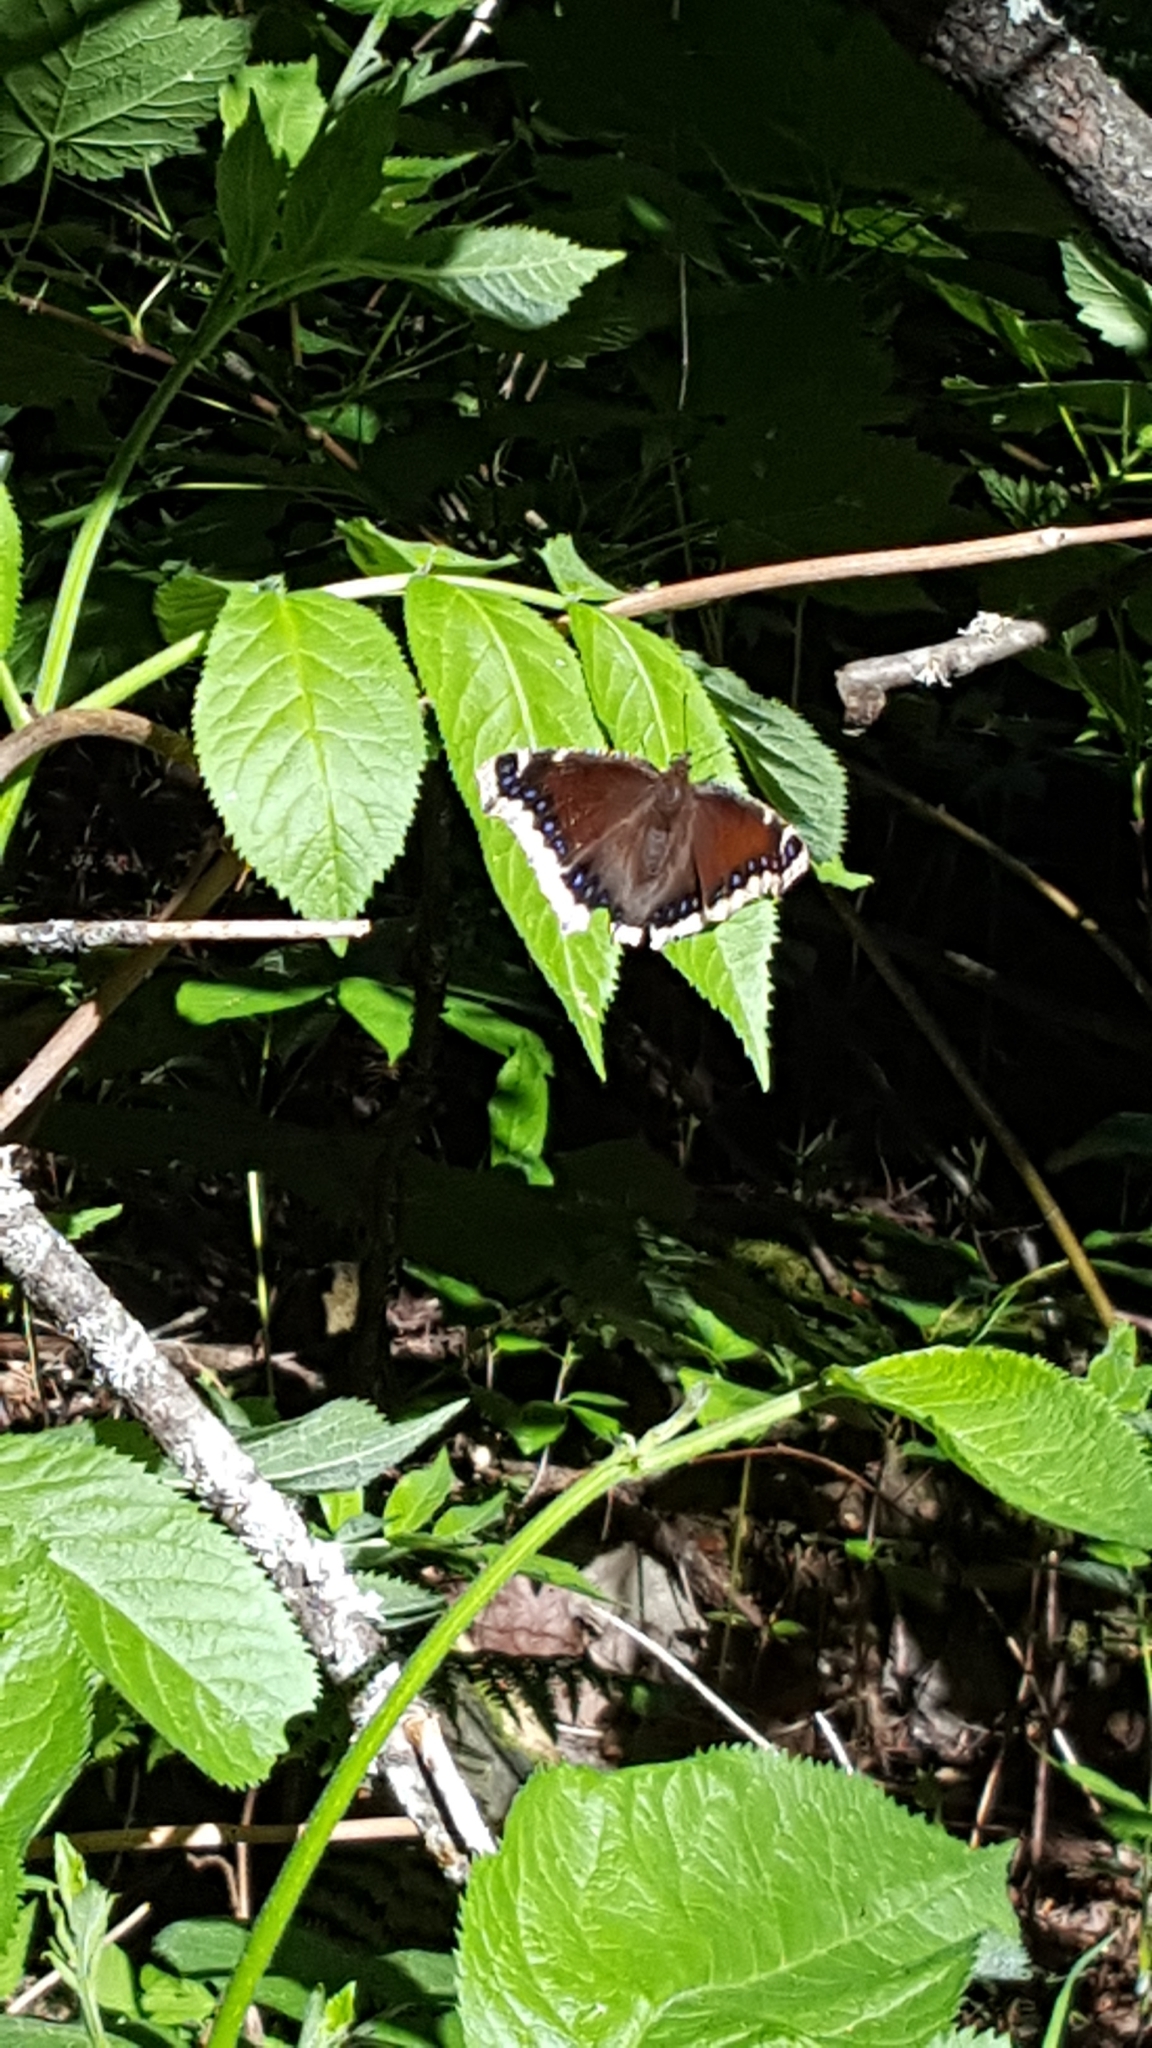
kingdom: Animalia
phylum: Arthropoda
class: Insecta
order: Lepidoptera
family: Nymphalidae
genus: Nymphalis
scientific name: Nymphalis antiopa
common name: Camberwell beauty
